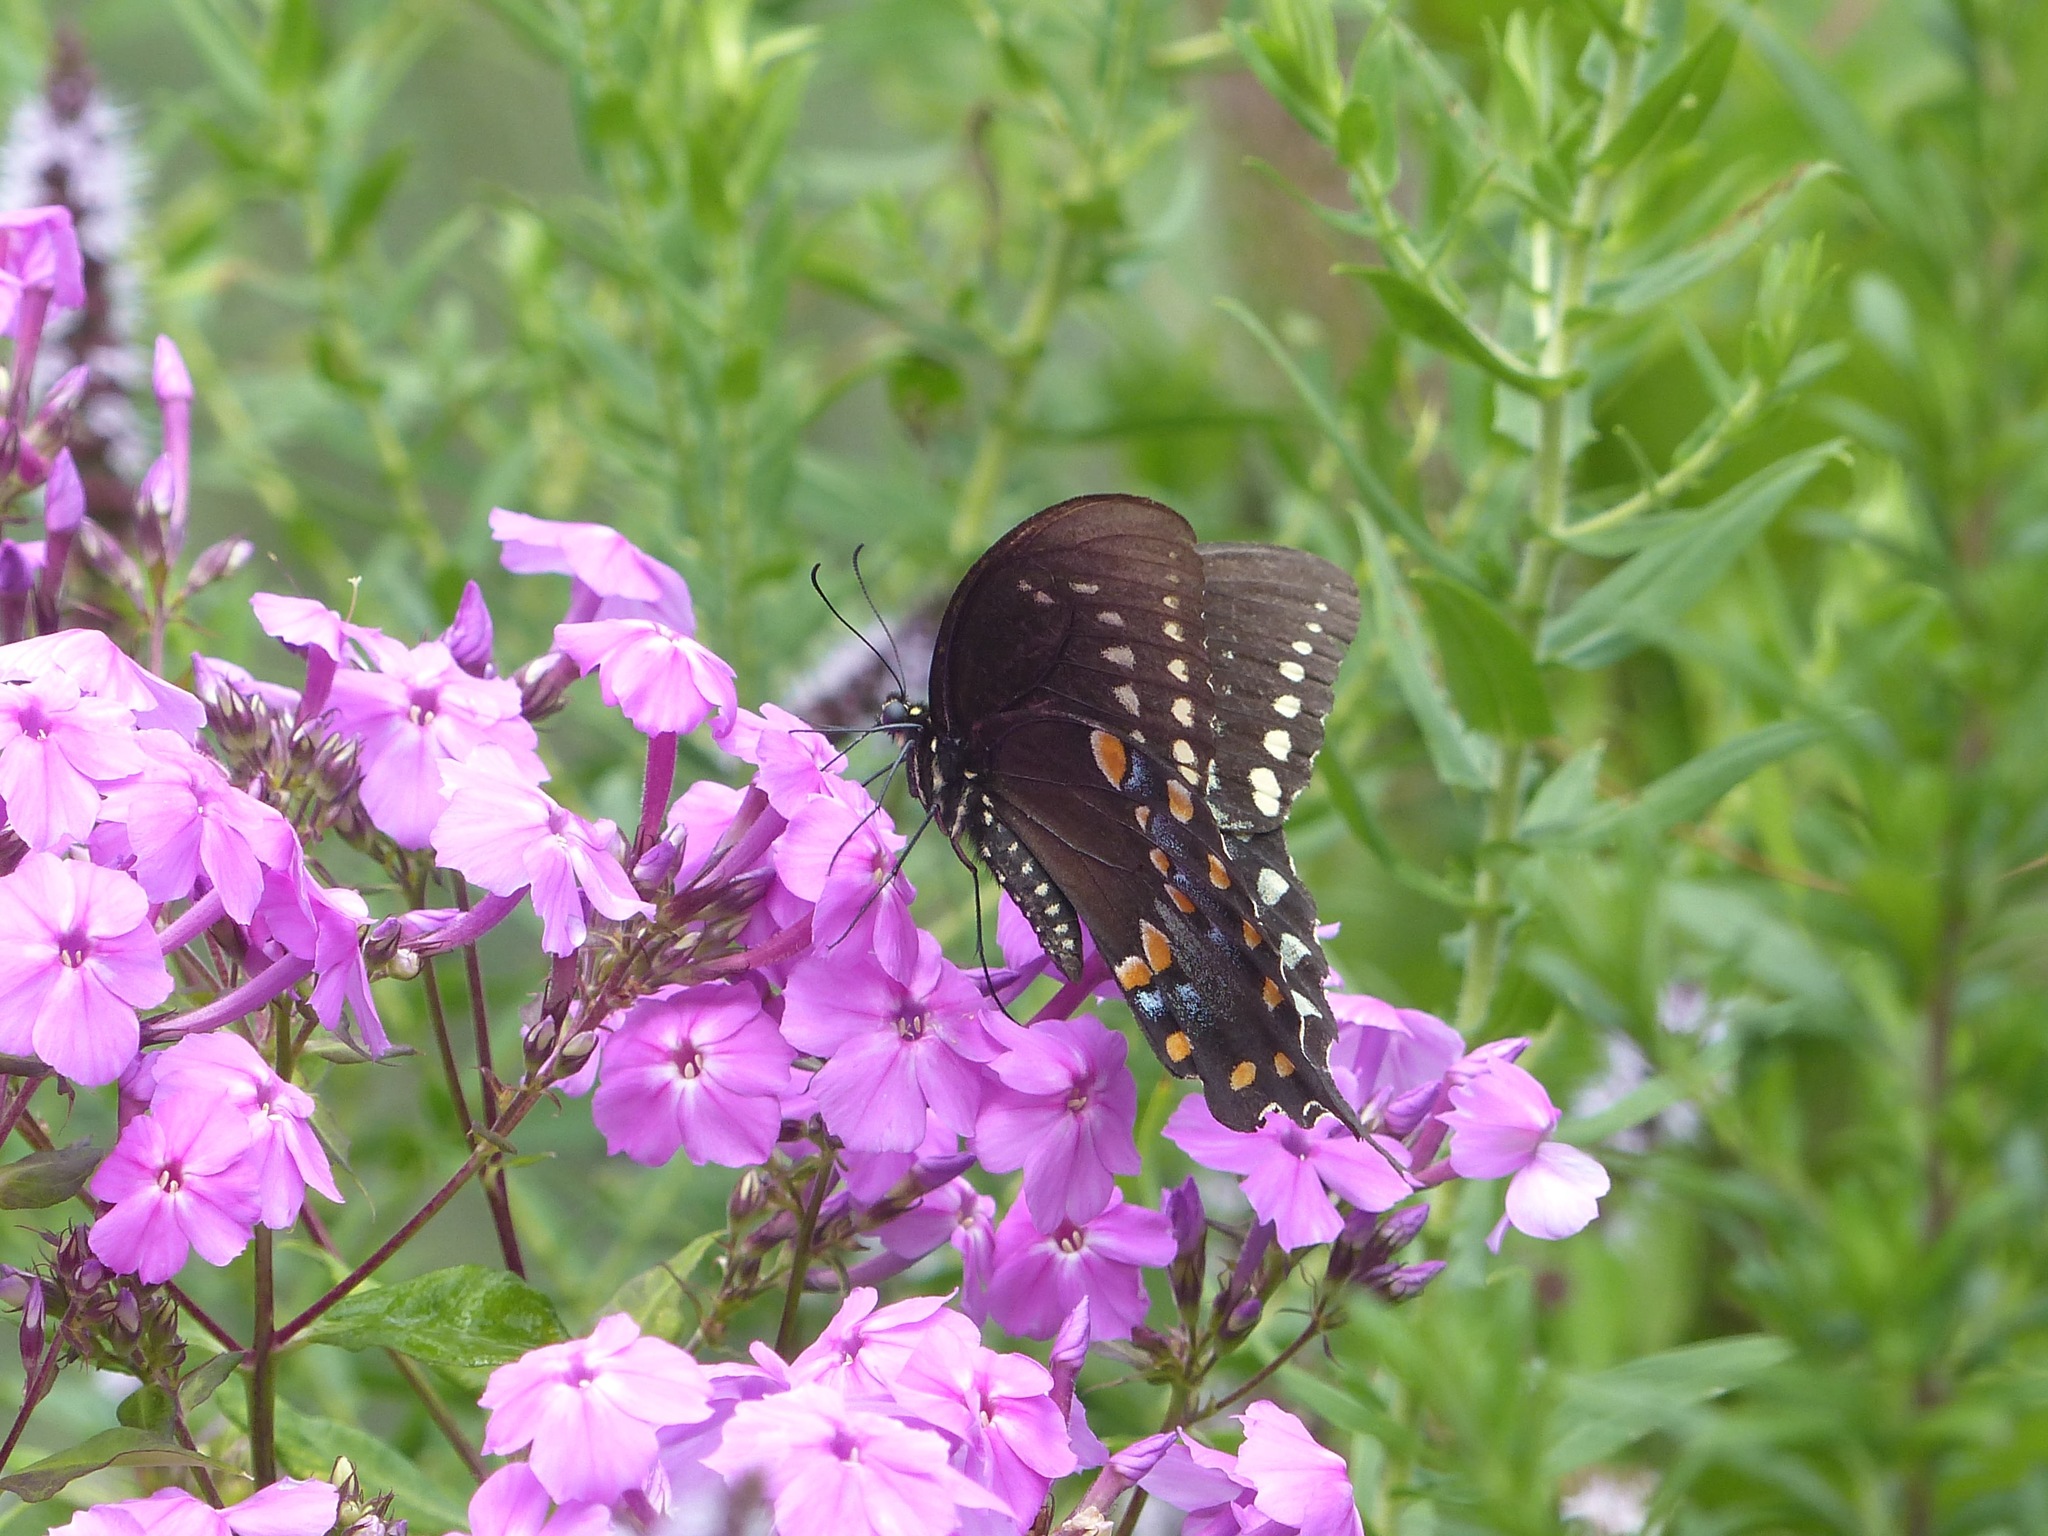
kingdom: Animalia
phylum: Arthropoda
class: Insecta
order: Lepidoptera
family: Papilionidae
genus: Papilio
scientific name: Papilio troilus
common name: Spicebush swallowtail
